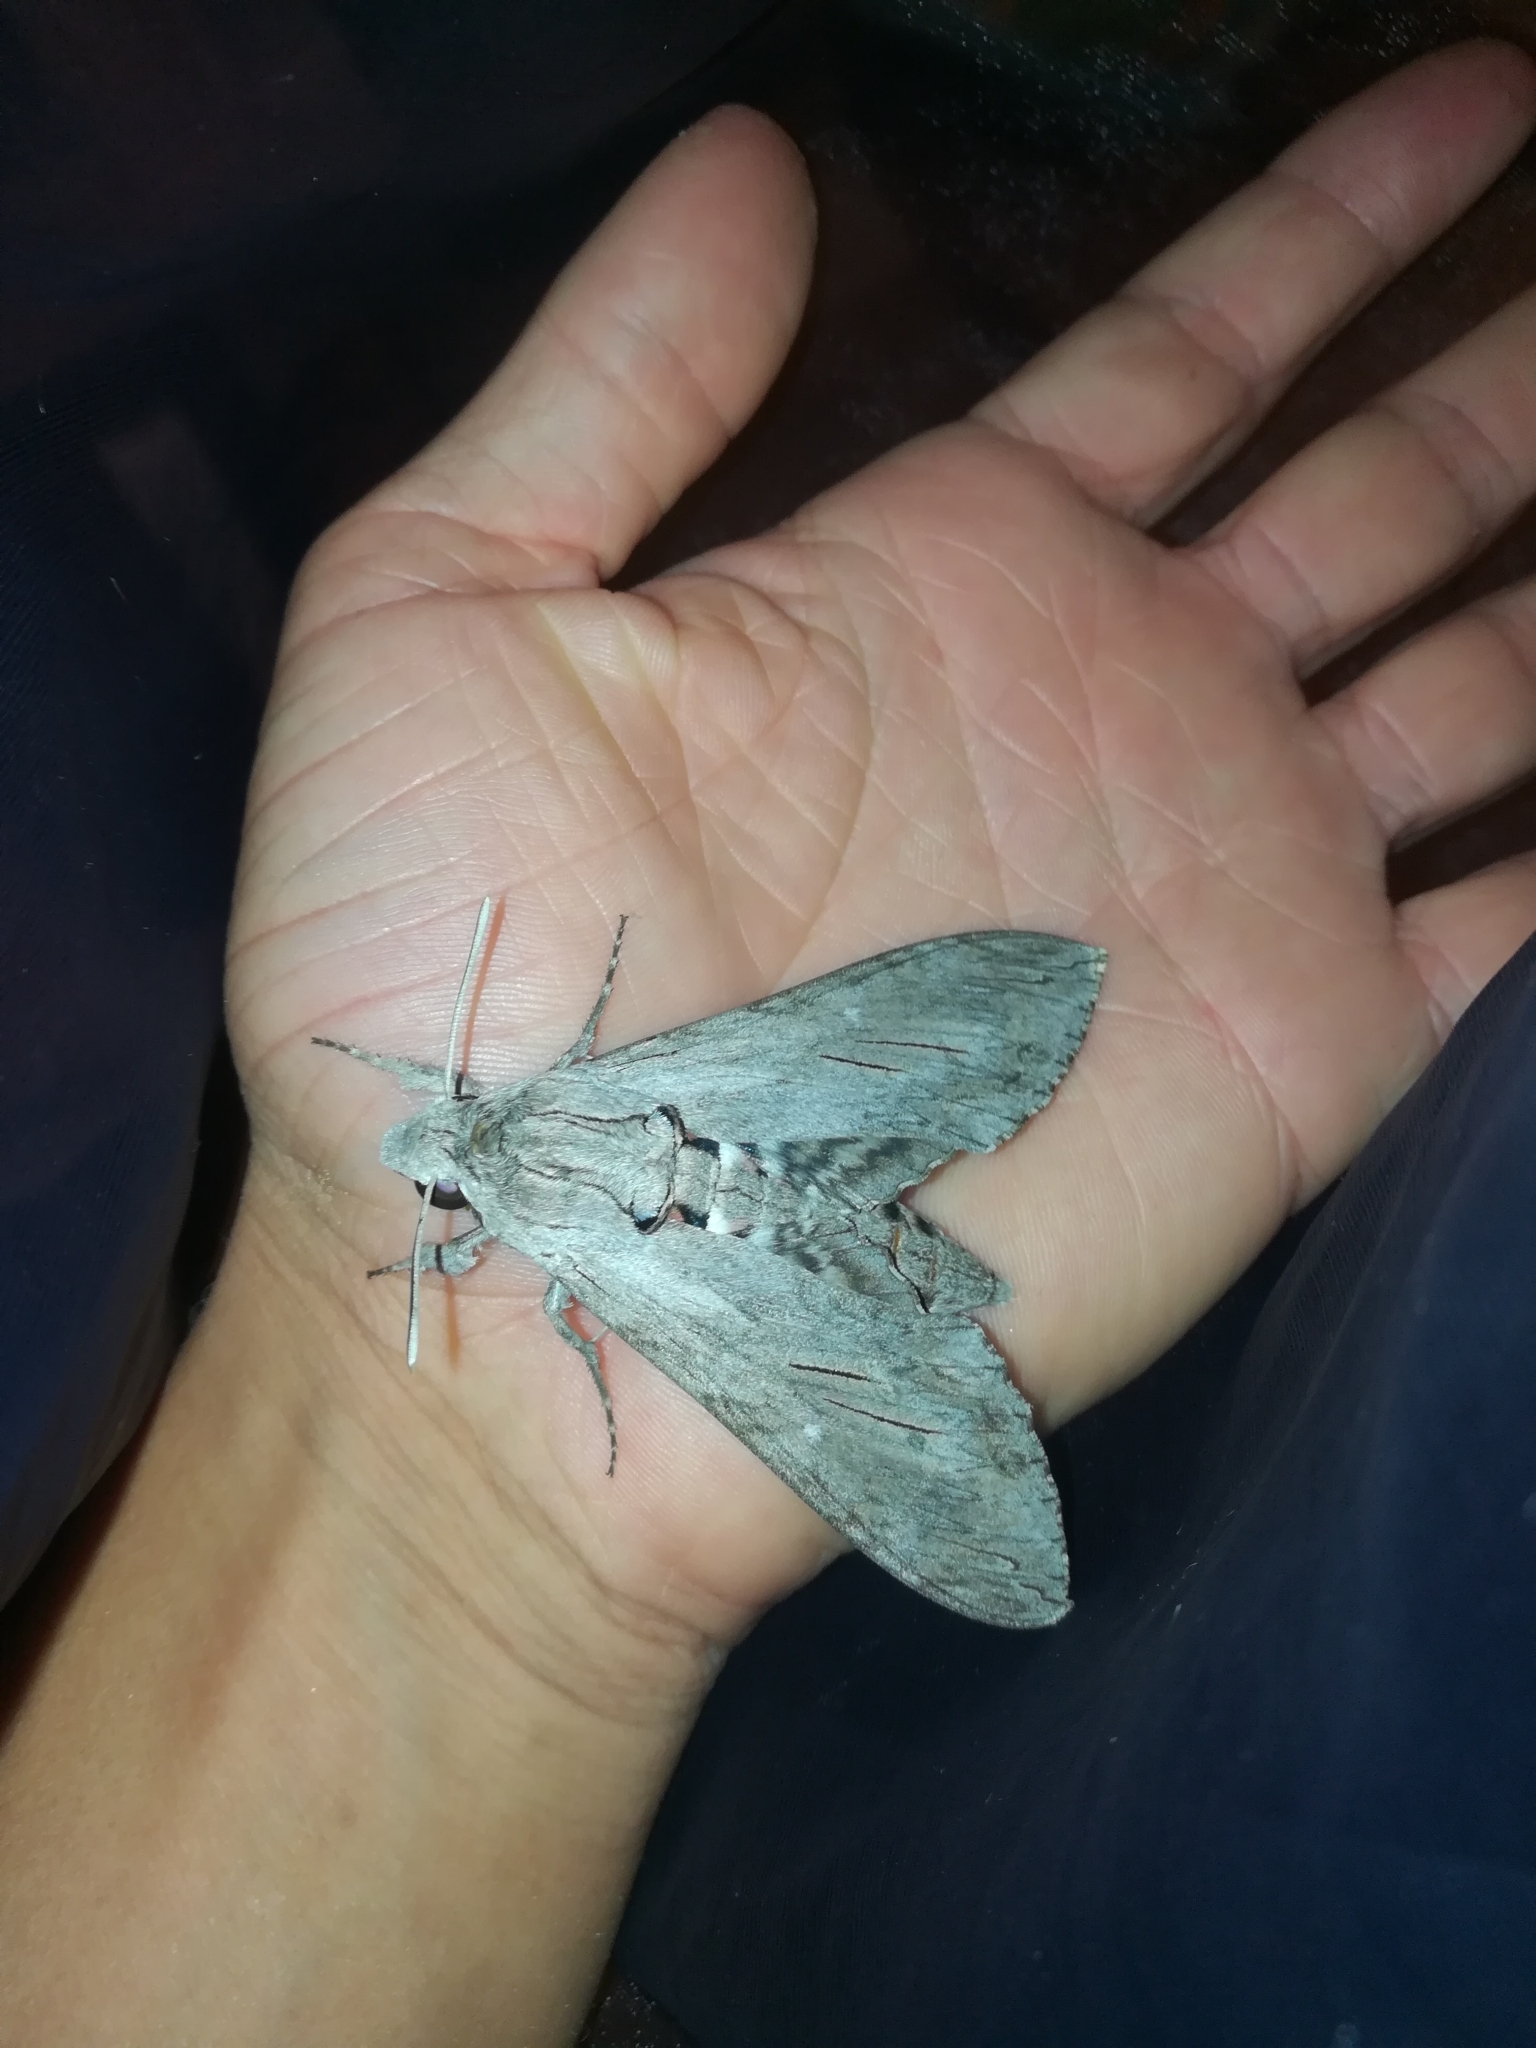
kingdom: Animalia
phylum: Arthropoda
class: Insecta
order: Lepidoptera
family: Sphingidae
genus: Agrius
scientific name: Agrius convolvuli
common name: Convolvulus hawkmoth
